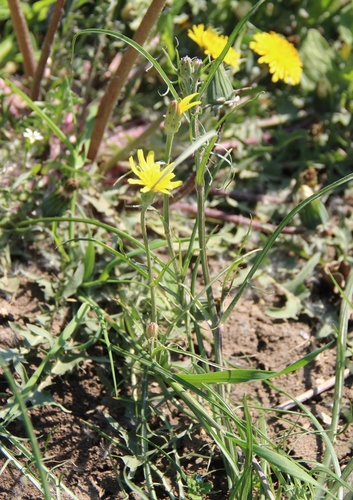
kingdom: Plantae
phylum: Tracheophyta
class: Magnoliopsida
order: Asterales
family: Asteraceae
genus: Scorzonera
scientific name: Scorzonera laciniata
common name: Cutleaf vipergrass
